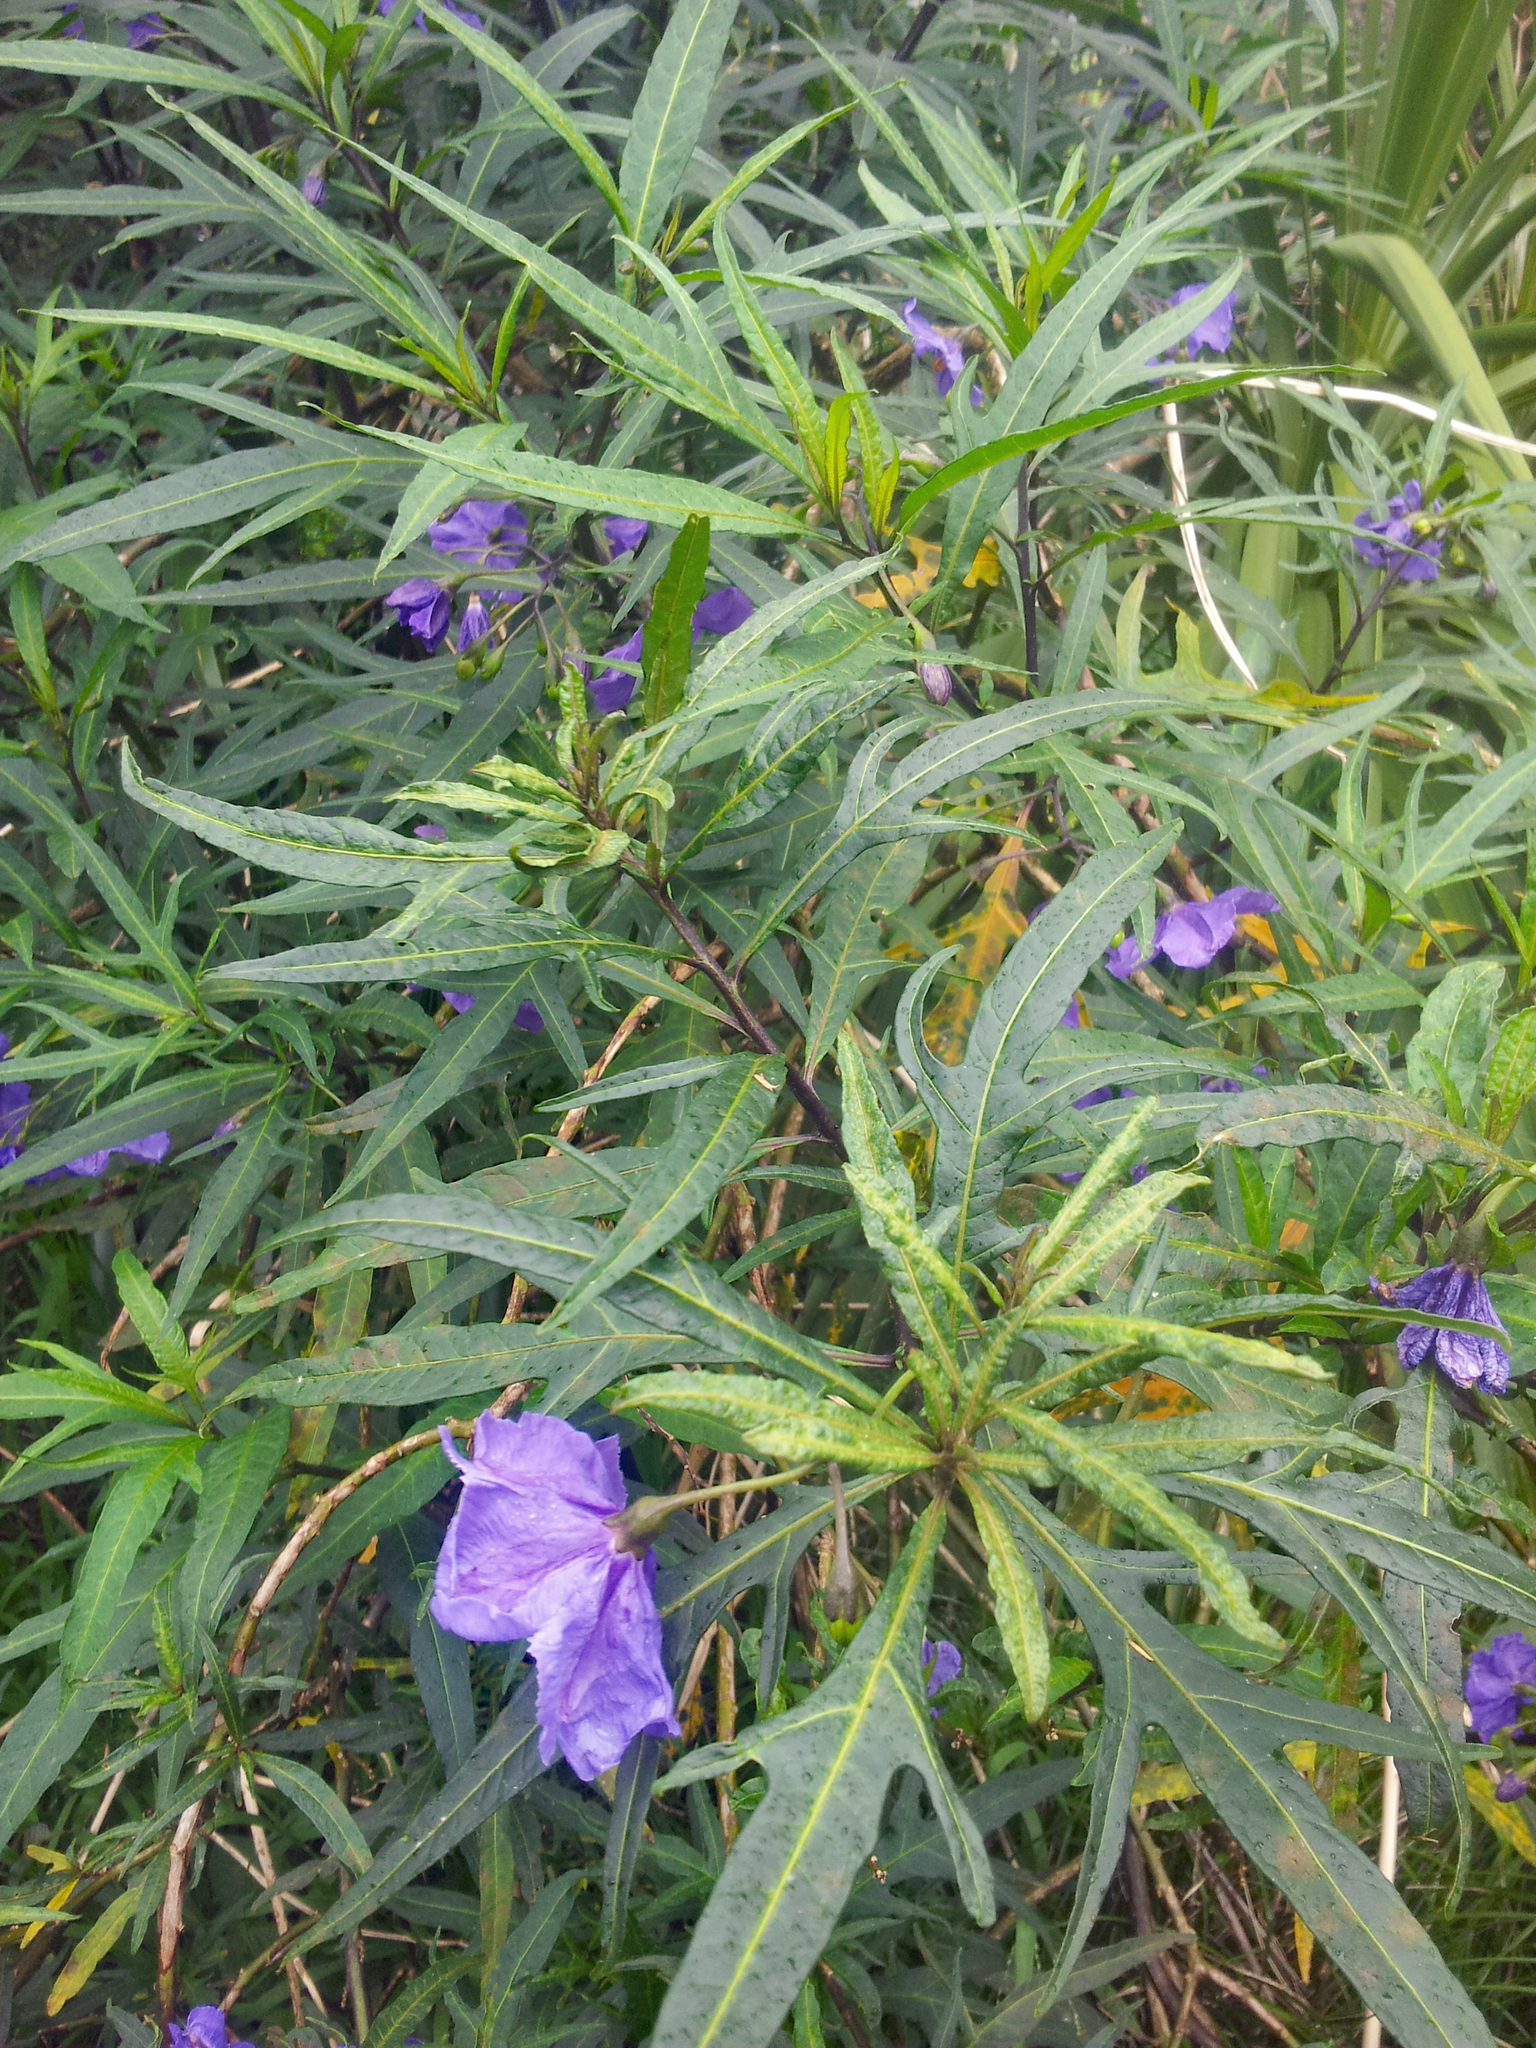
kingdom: Plantae
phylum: Tracheophyta
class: Magnoliopsida
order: Solanales
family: Solanaceae
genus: Solanum
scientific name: Solanum laciniatum
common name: Kangaroo-apple
